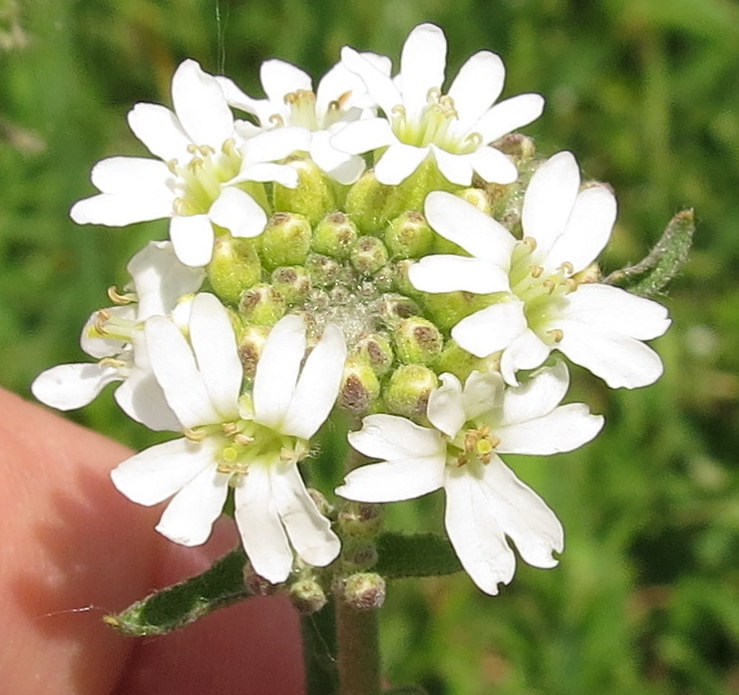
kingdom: Plantae
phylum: Tracheophyta
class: Magnoliopsida
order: Brassicales
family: Brassicaceae
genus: Berteroa
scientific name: Berteroa incana
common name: Hoary alison
